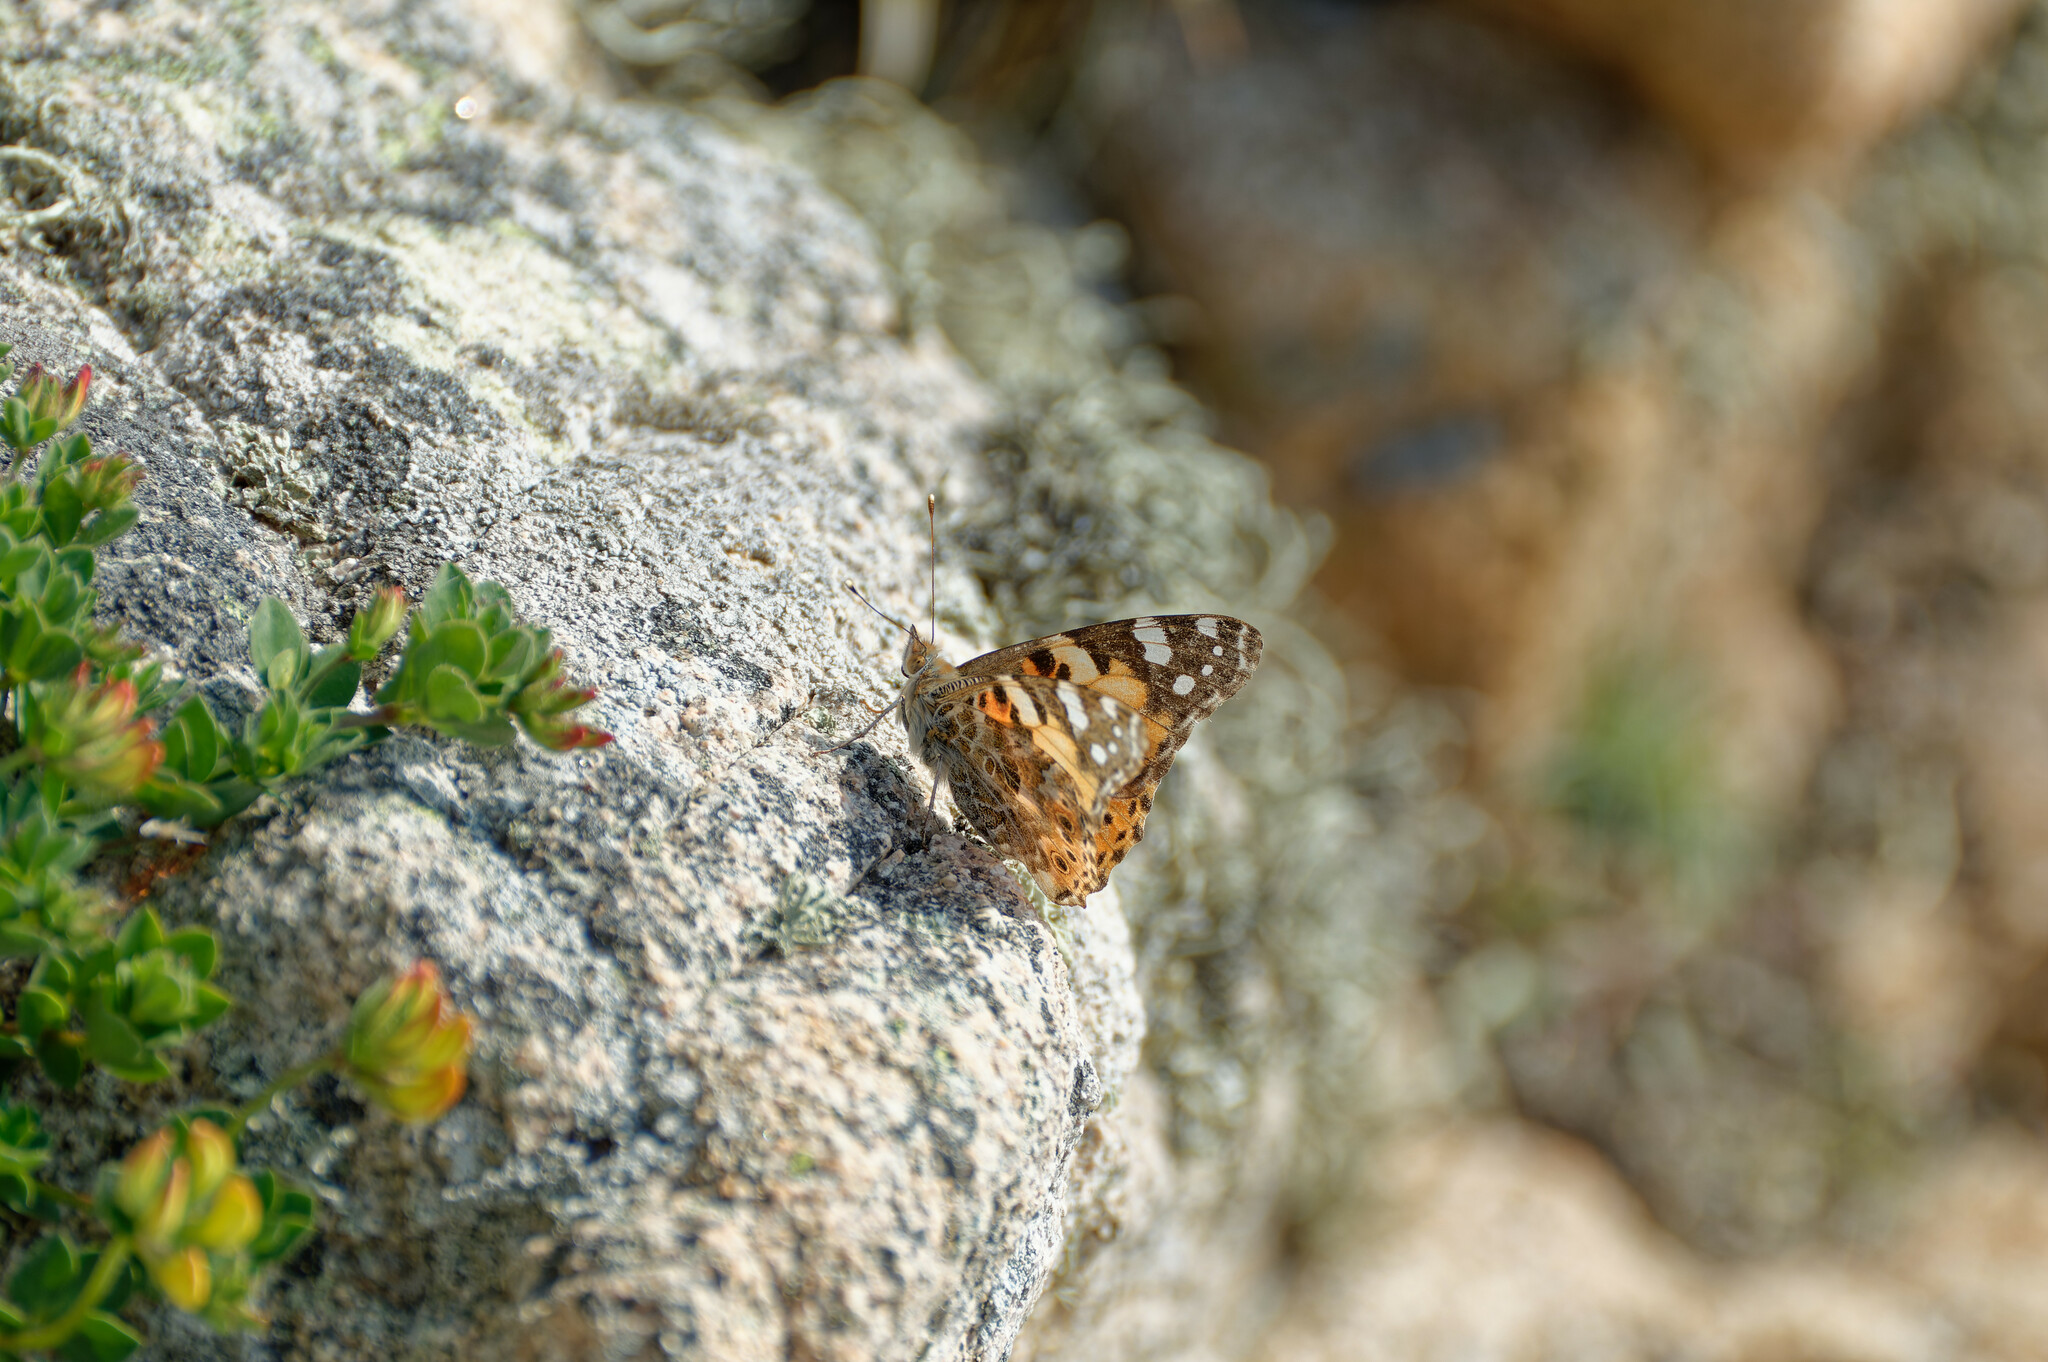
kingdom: Animalia
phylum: Arthropoda
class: Insecta
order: Lepidoptera
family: Nymphalidae
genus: Vanessa
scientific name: Vanessa cardui
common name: Painted lady
